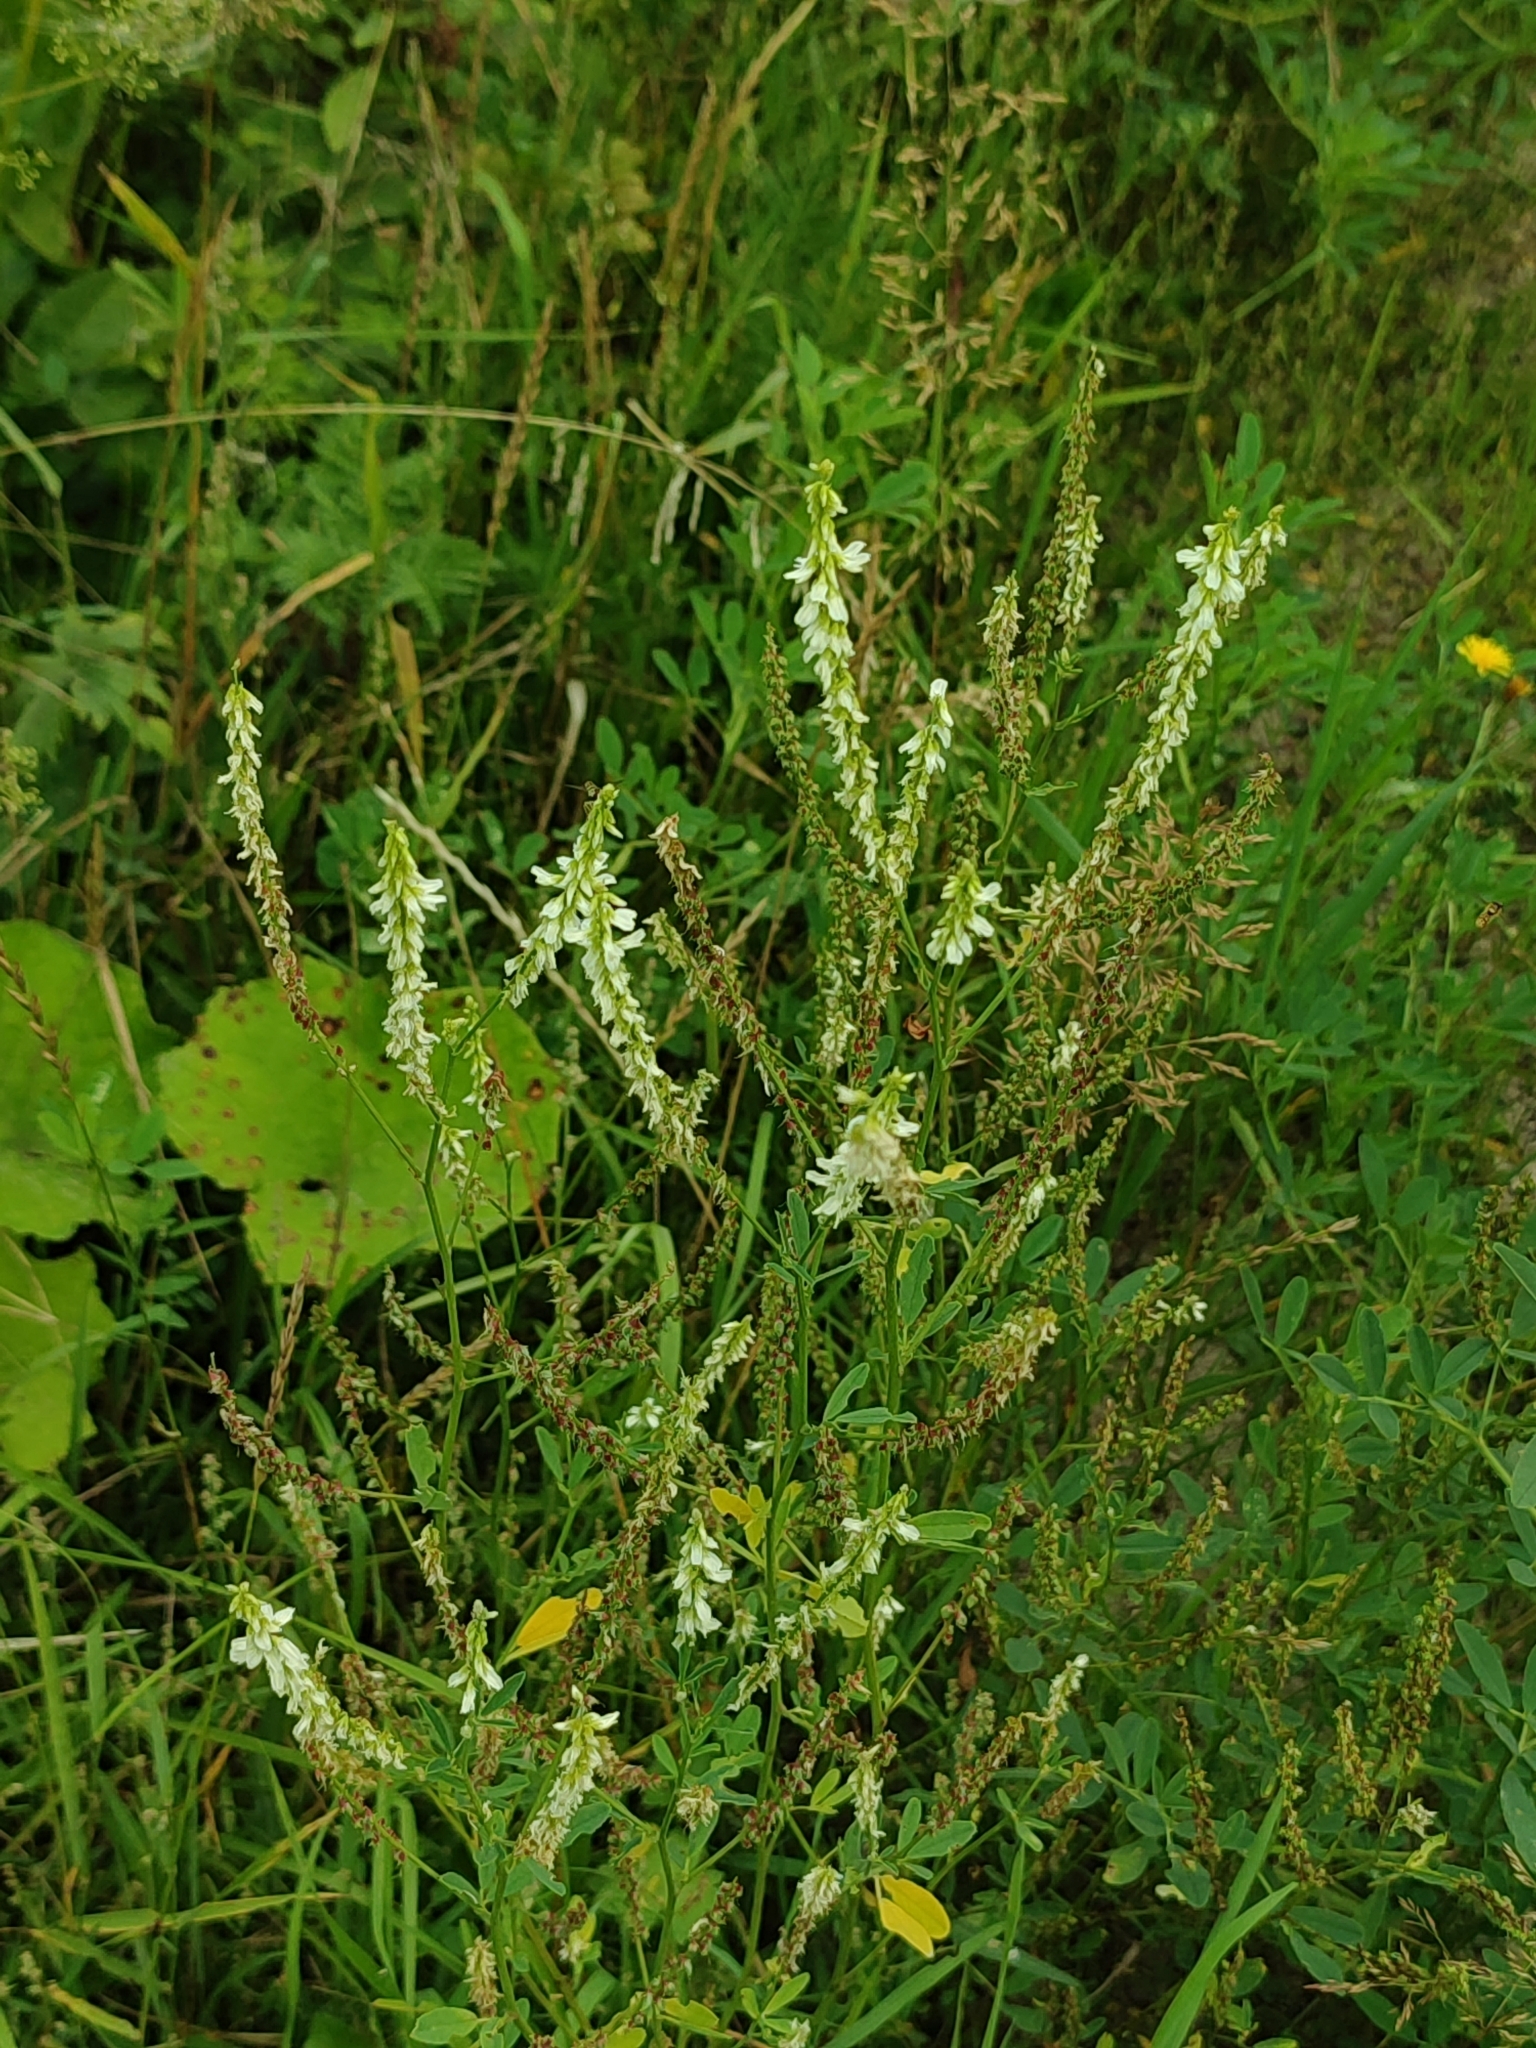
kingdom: Plantae
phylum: Tracheophyta
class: Magnoliopsida
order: Fabales
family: Fabaceae
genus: Melilotus
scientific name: Melilotus albus
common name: White melilot
